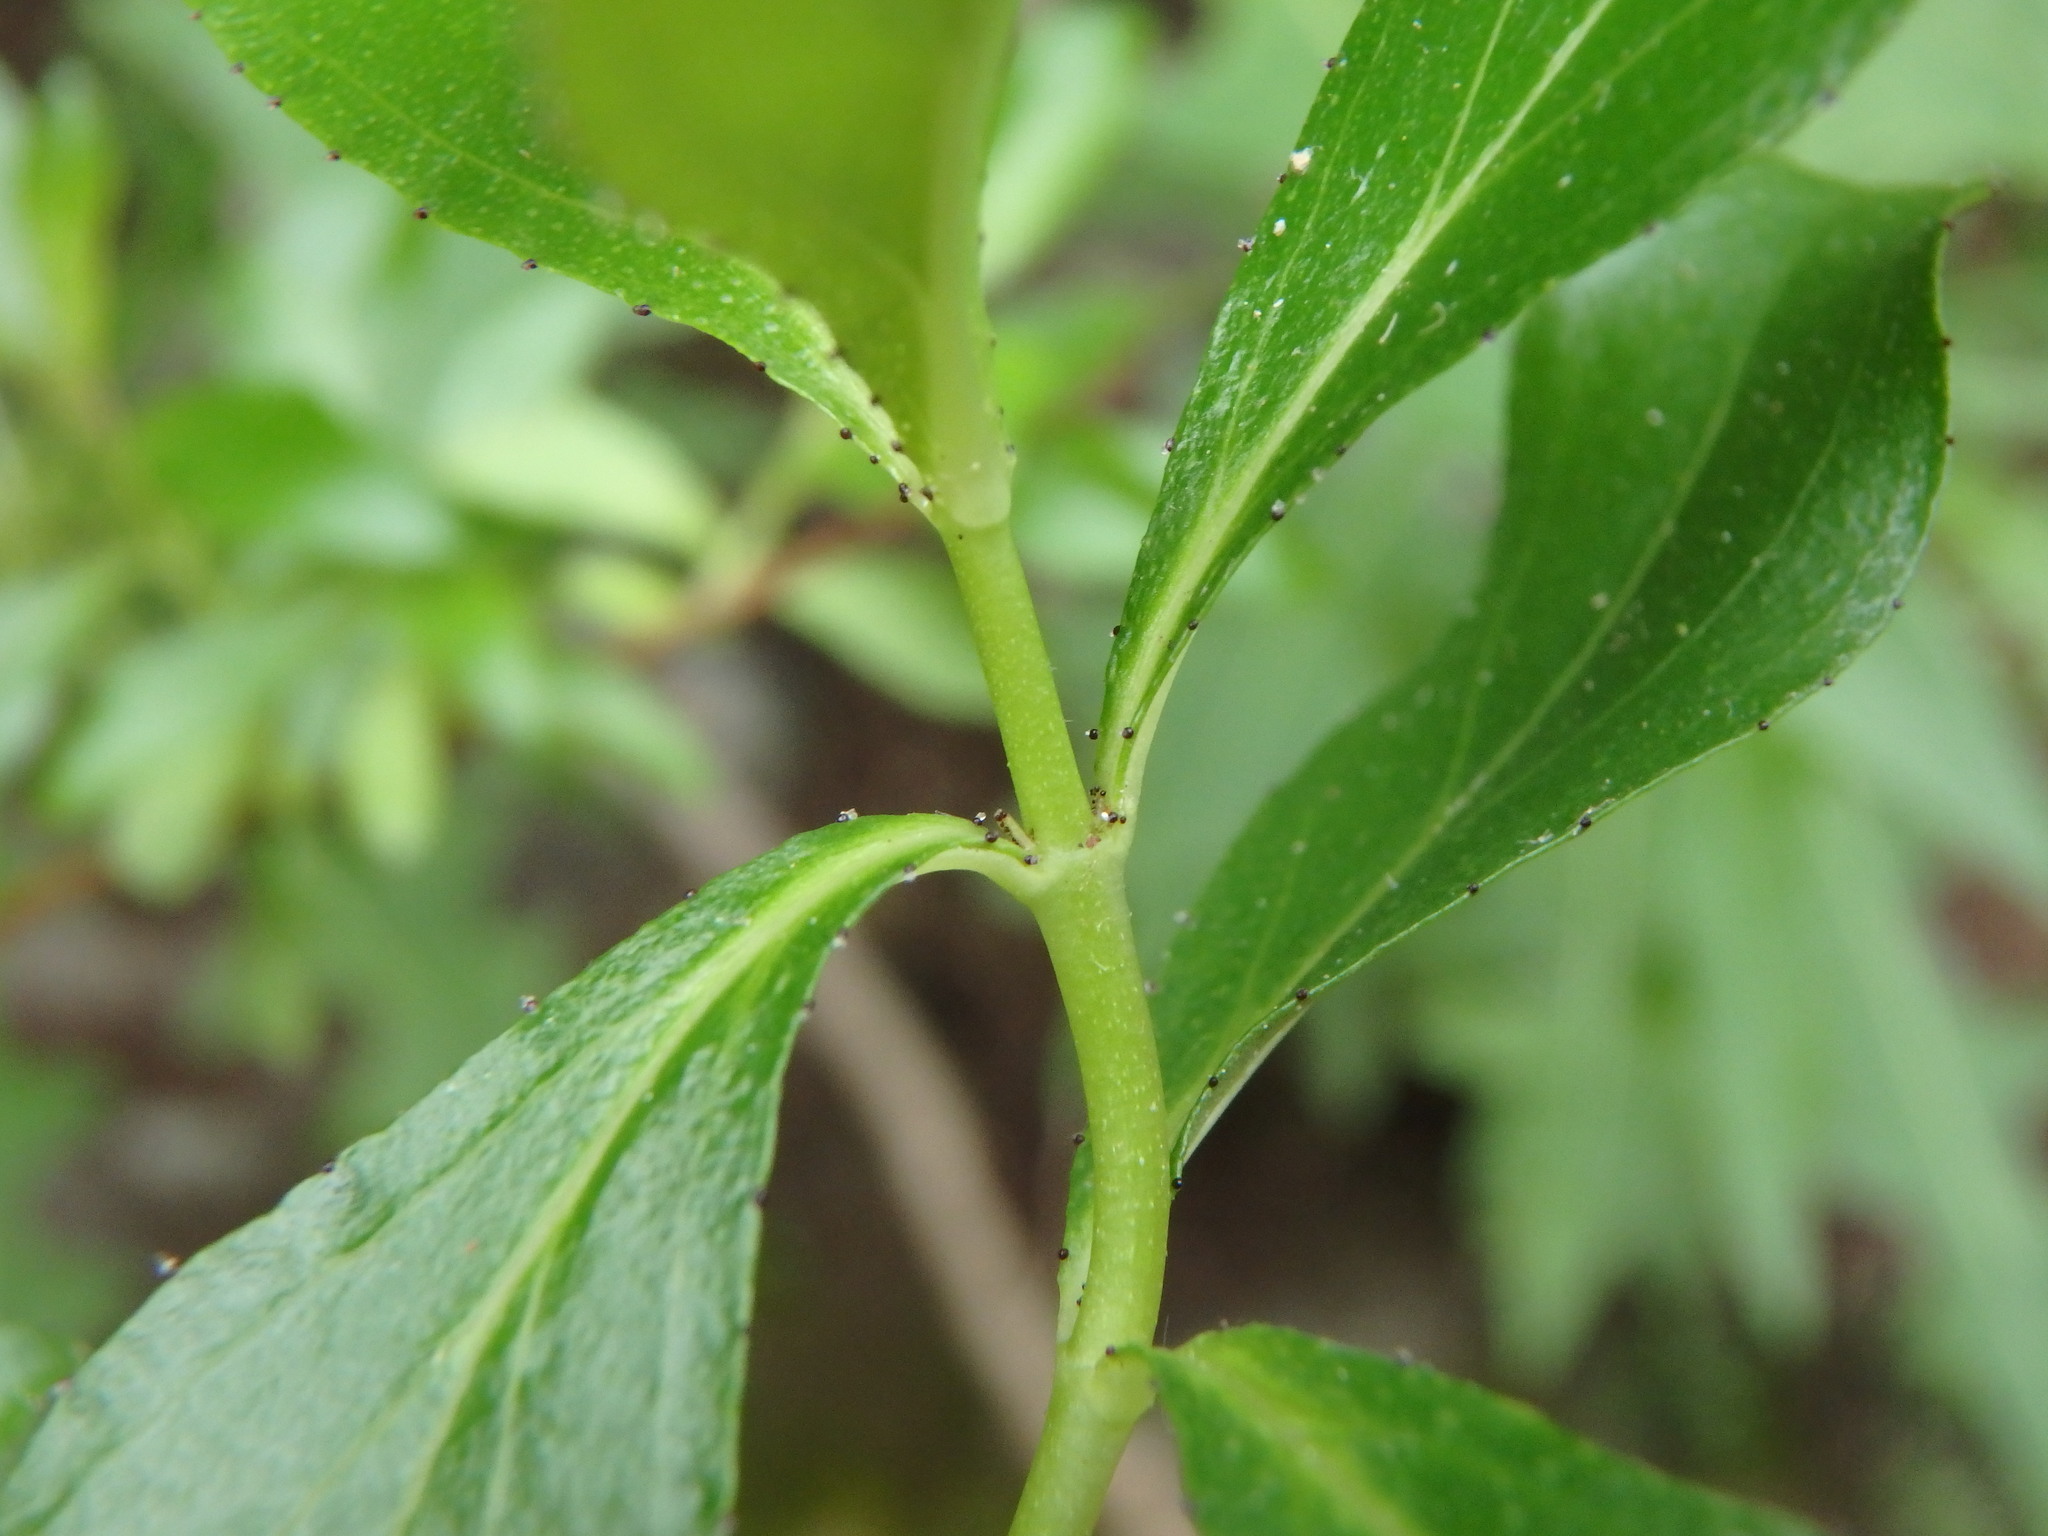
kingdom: Plantae
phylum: Tracheophyta
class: Magnoliopsida
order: Malpighiales
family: Hypericaceae
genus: Hypericum
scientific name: Hypericum glandulosum
